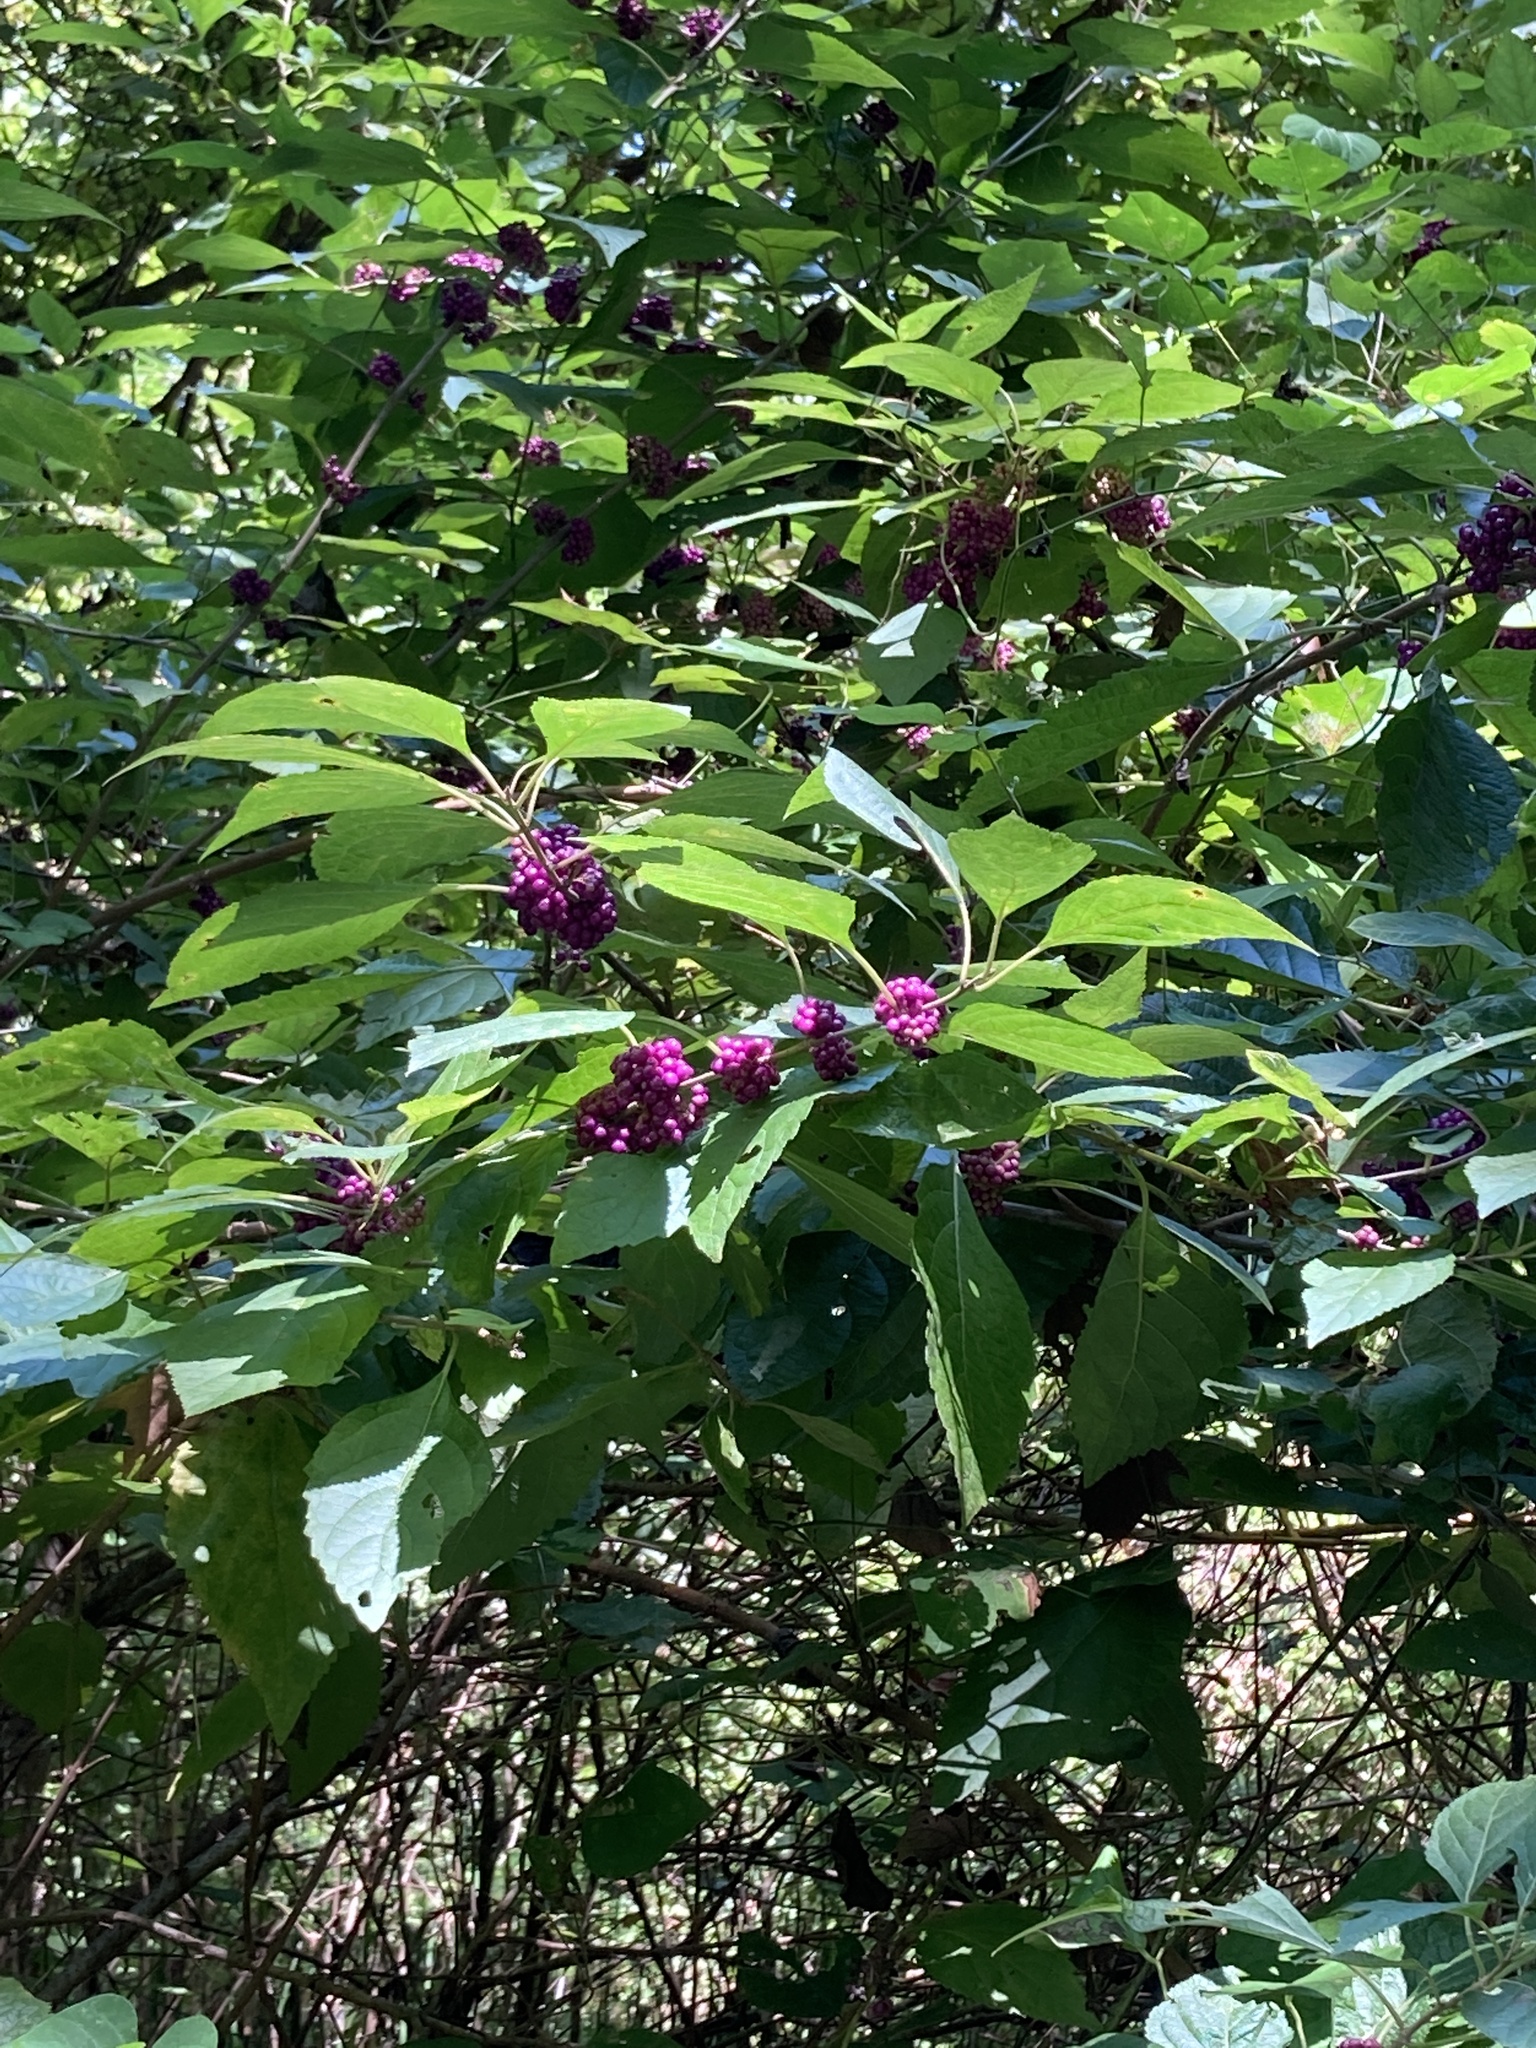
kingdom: Plantae
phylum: Tracheophyta
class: Magnoliopsida
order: Lamiales
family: Lamiaceae
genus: Callicarpa
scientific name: Callicarpa americana
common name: American beautyberry
